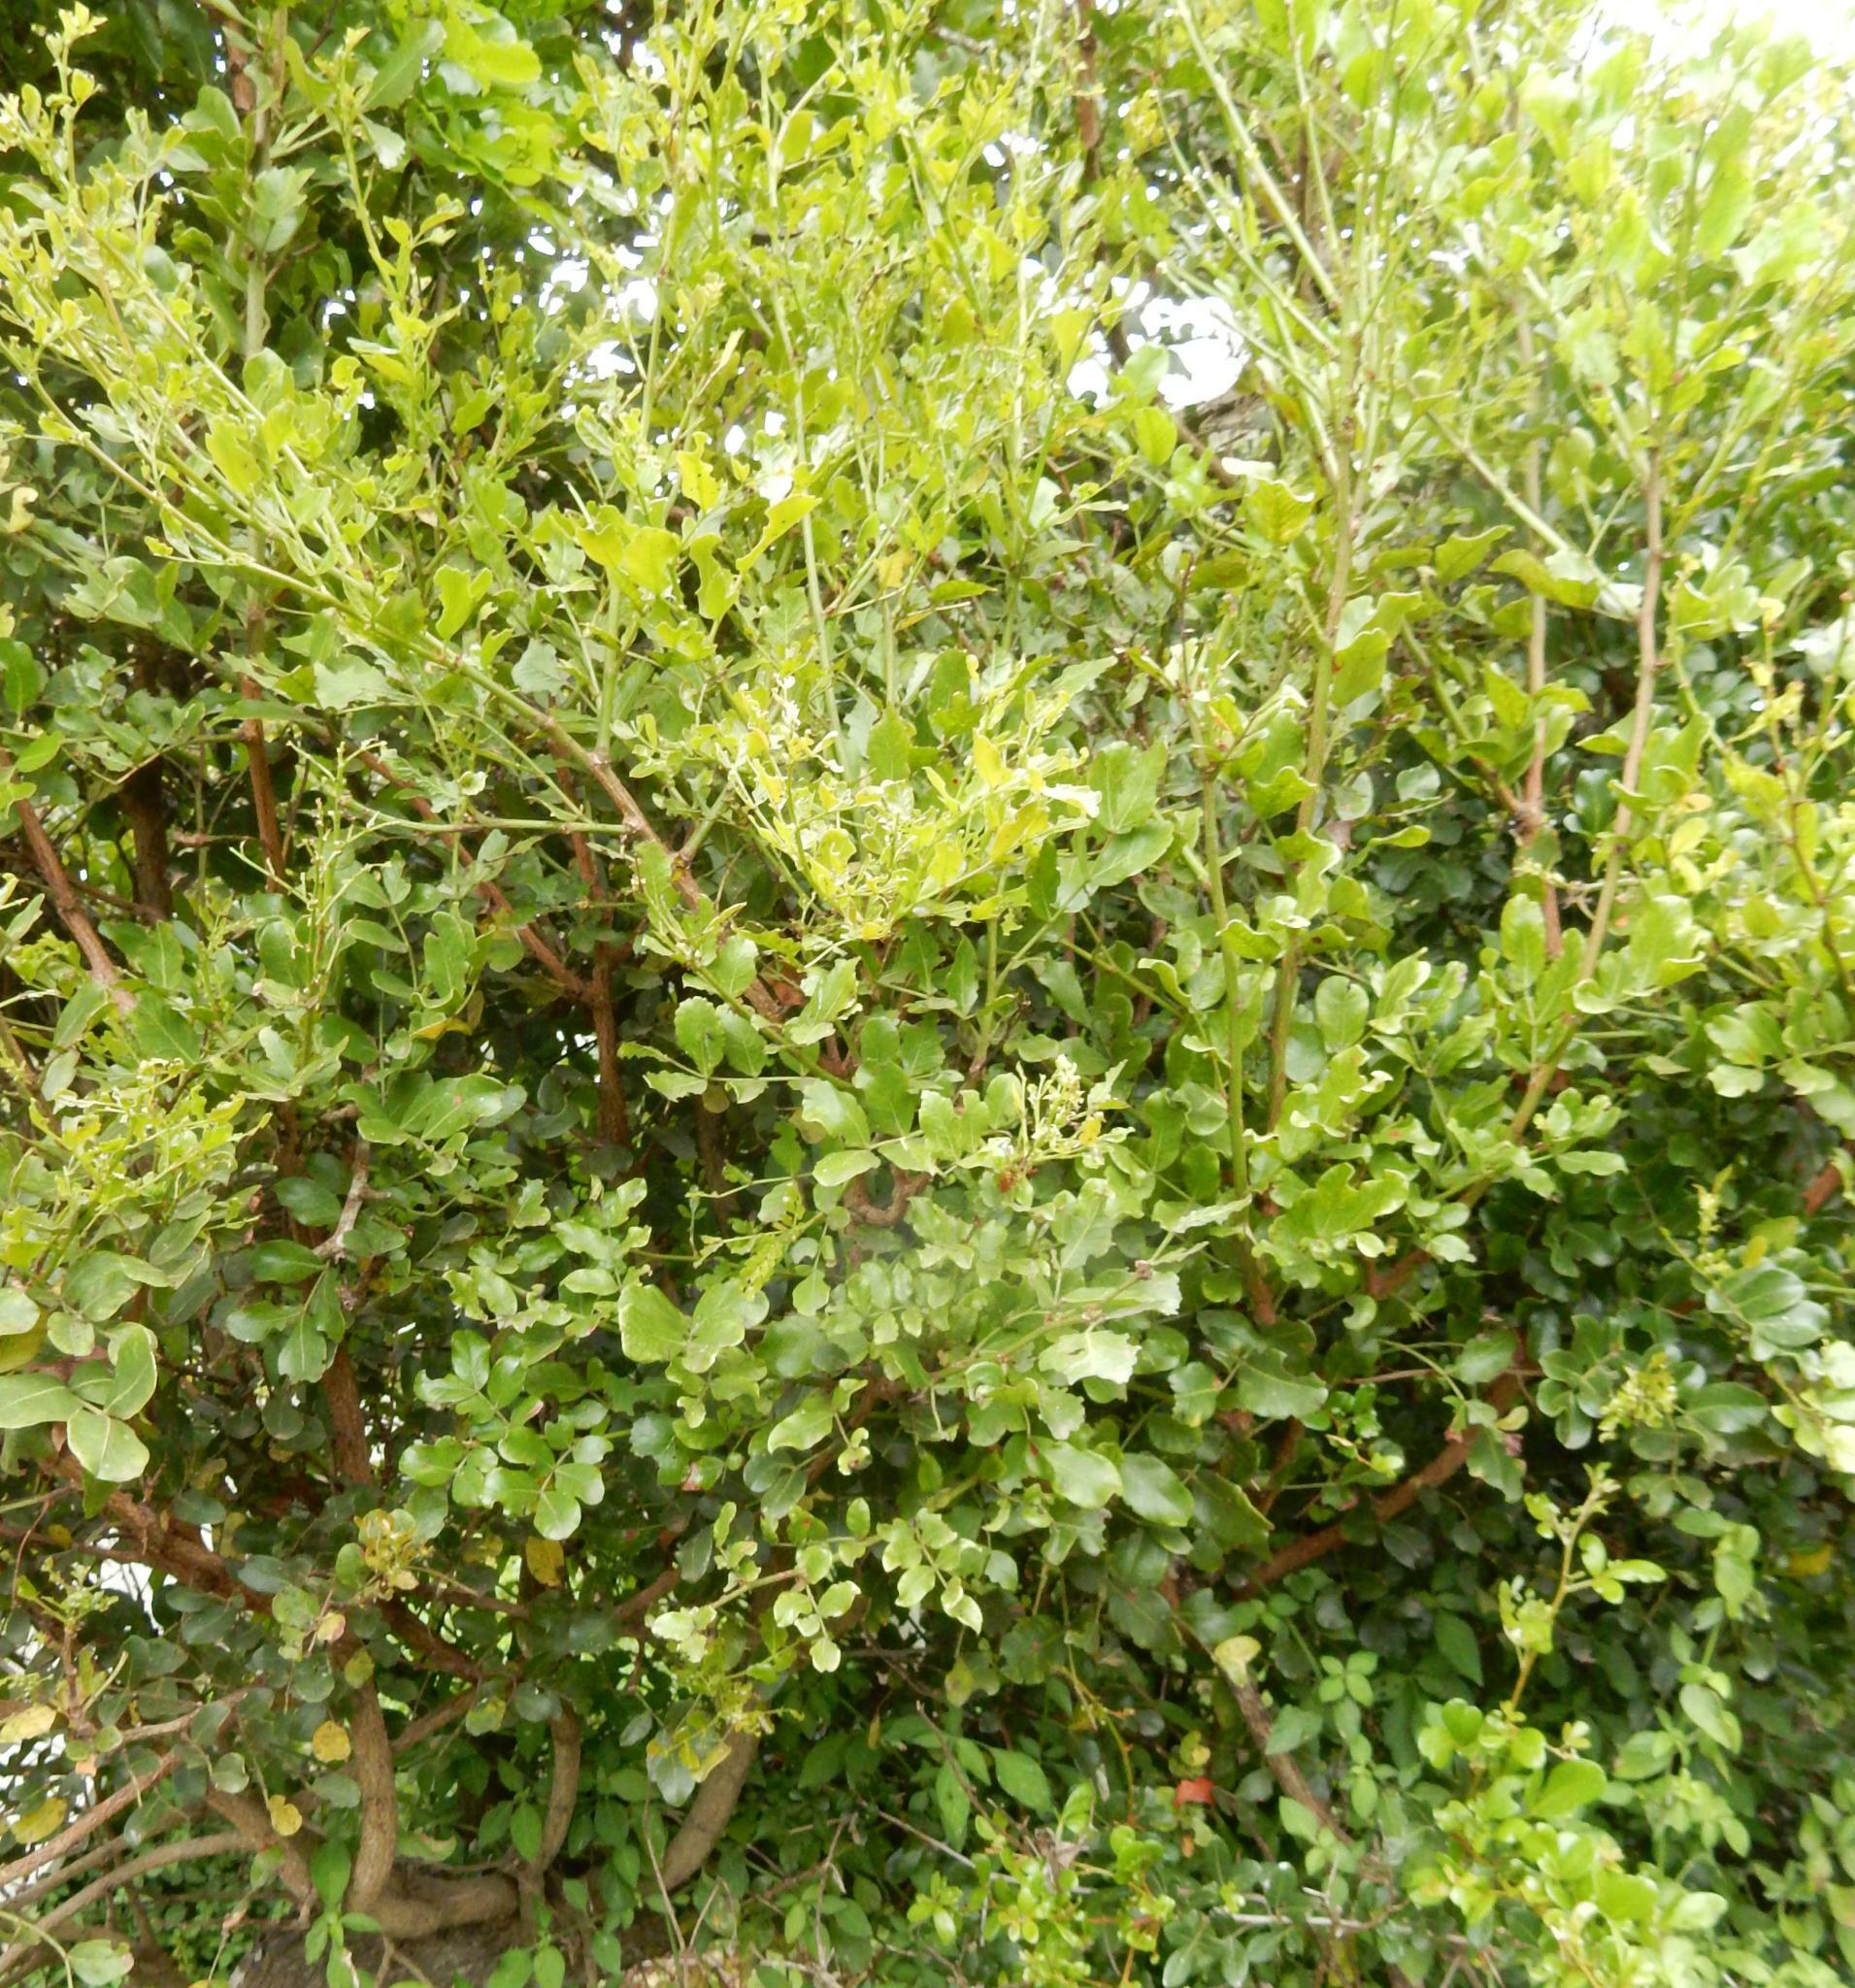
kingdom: Plantae
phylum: Tracheophyta
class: Magnoliopsida
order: Fabales
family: Fabaceae
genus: Schotia
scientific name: Schotia latifolia
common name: Bush boer-bean
